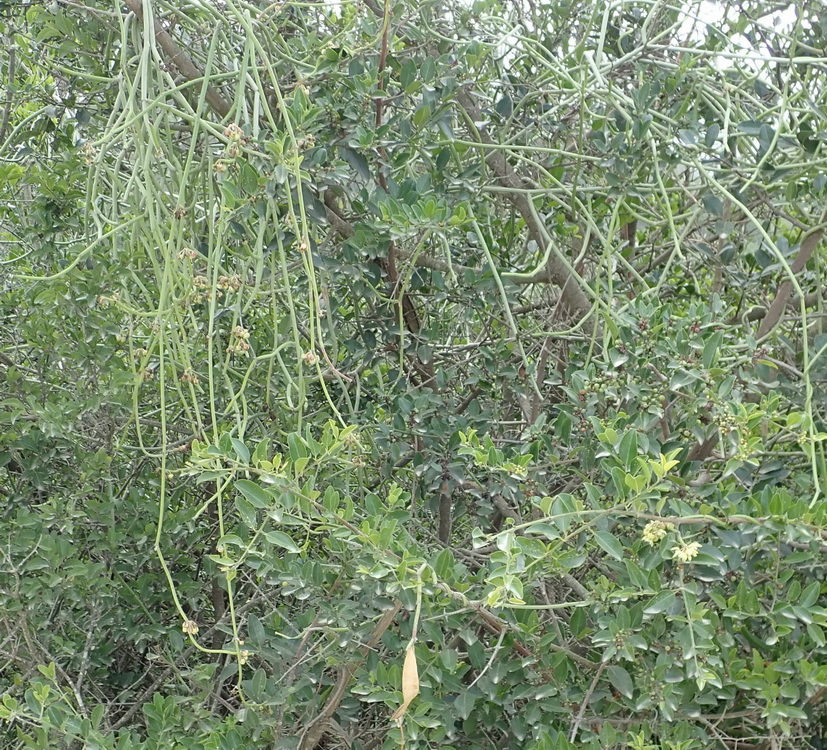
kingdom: Plantae
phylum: Tracheophyta
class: Magnoliopsida
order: Gentianales
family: Apocynaceae
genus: Cynanchum
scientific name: Cynanchum viminale
